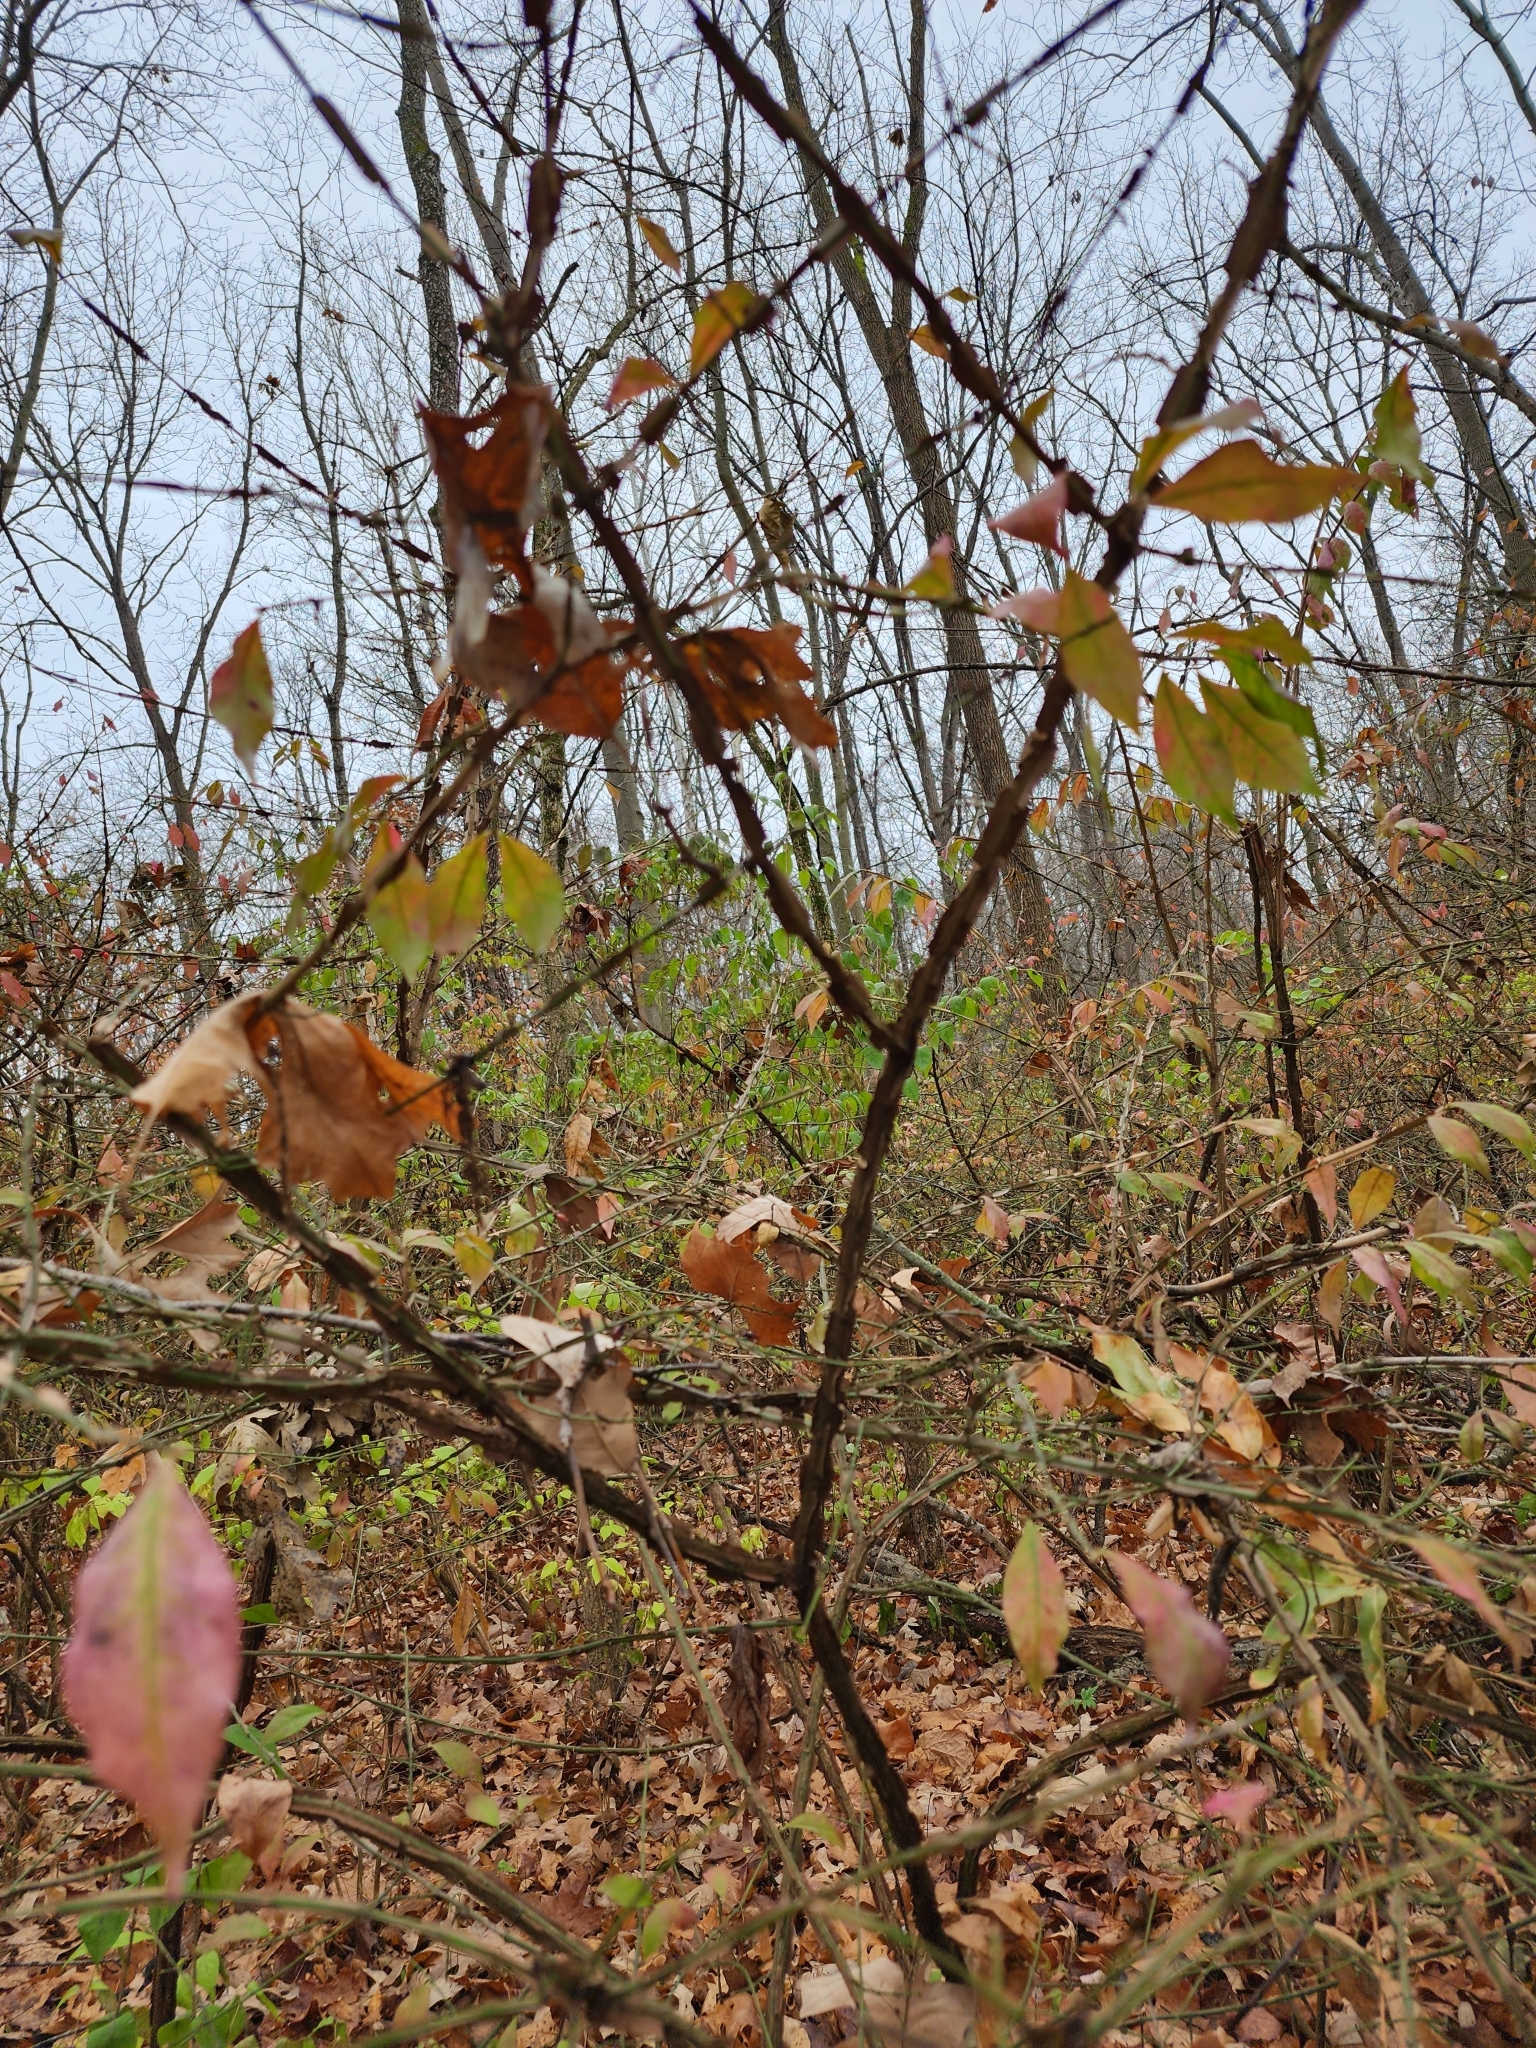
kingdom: Plantae
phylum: Tracheophyta
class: Magnoliopsida
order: Celastrales
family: Celastraceae
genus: Euonymus
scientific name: Euonymus alatus
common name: Winged euonymus
